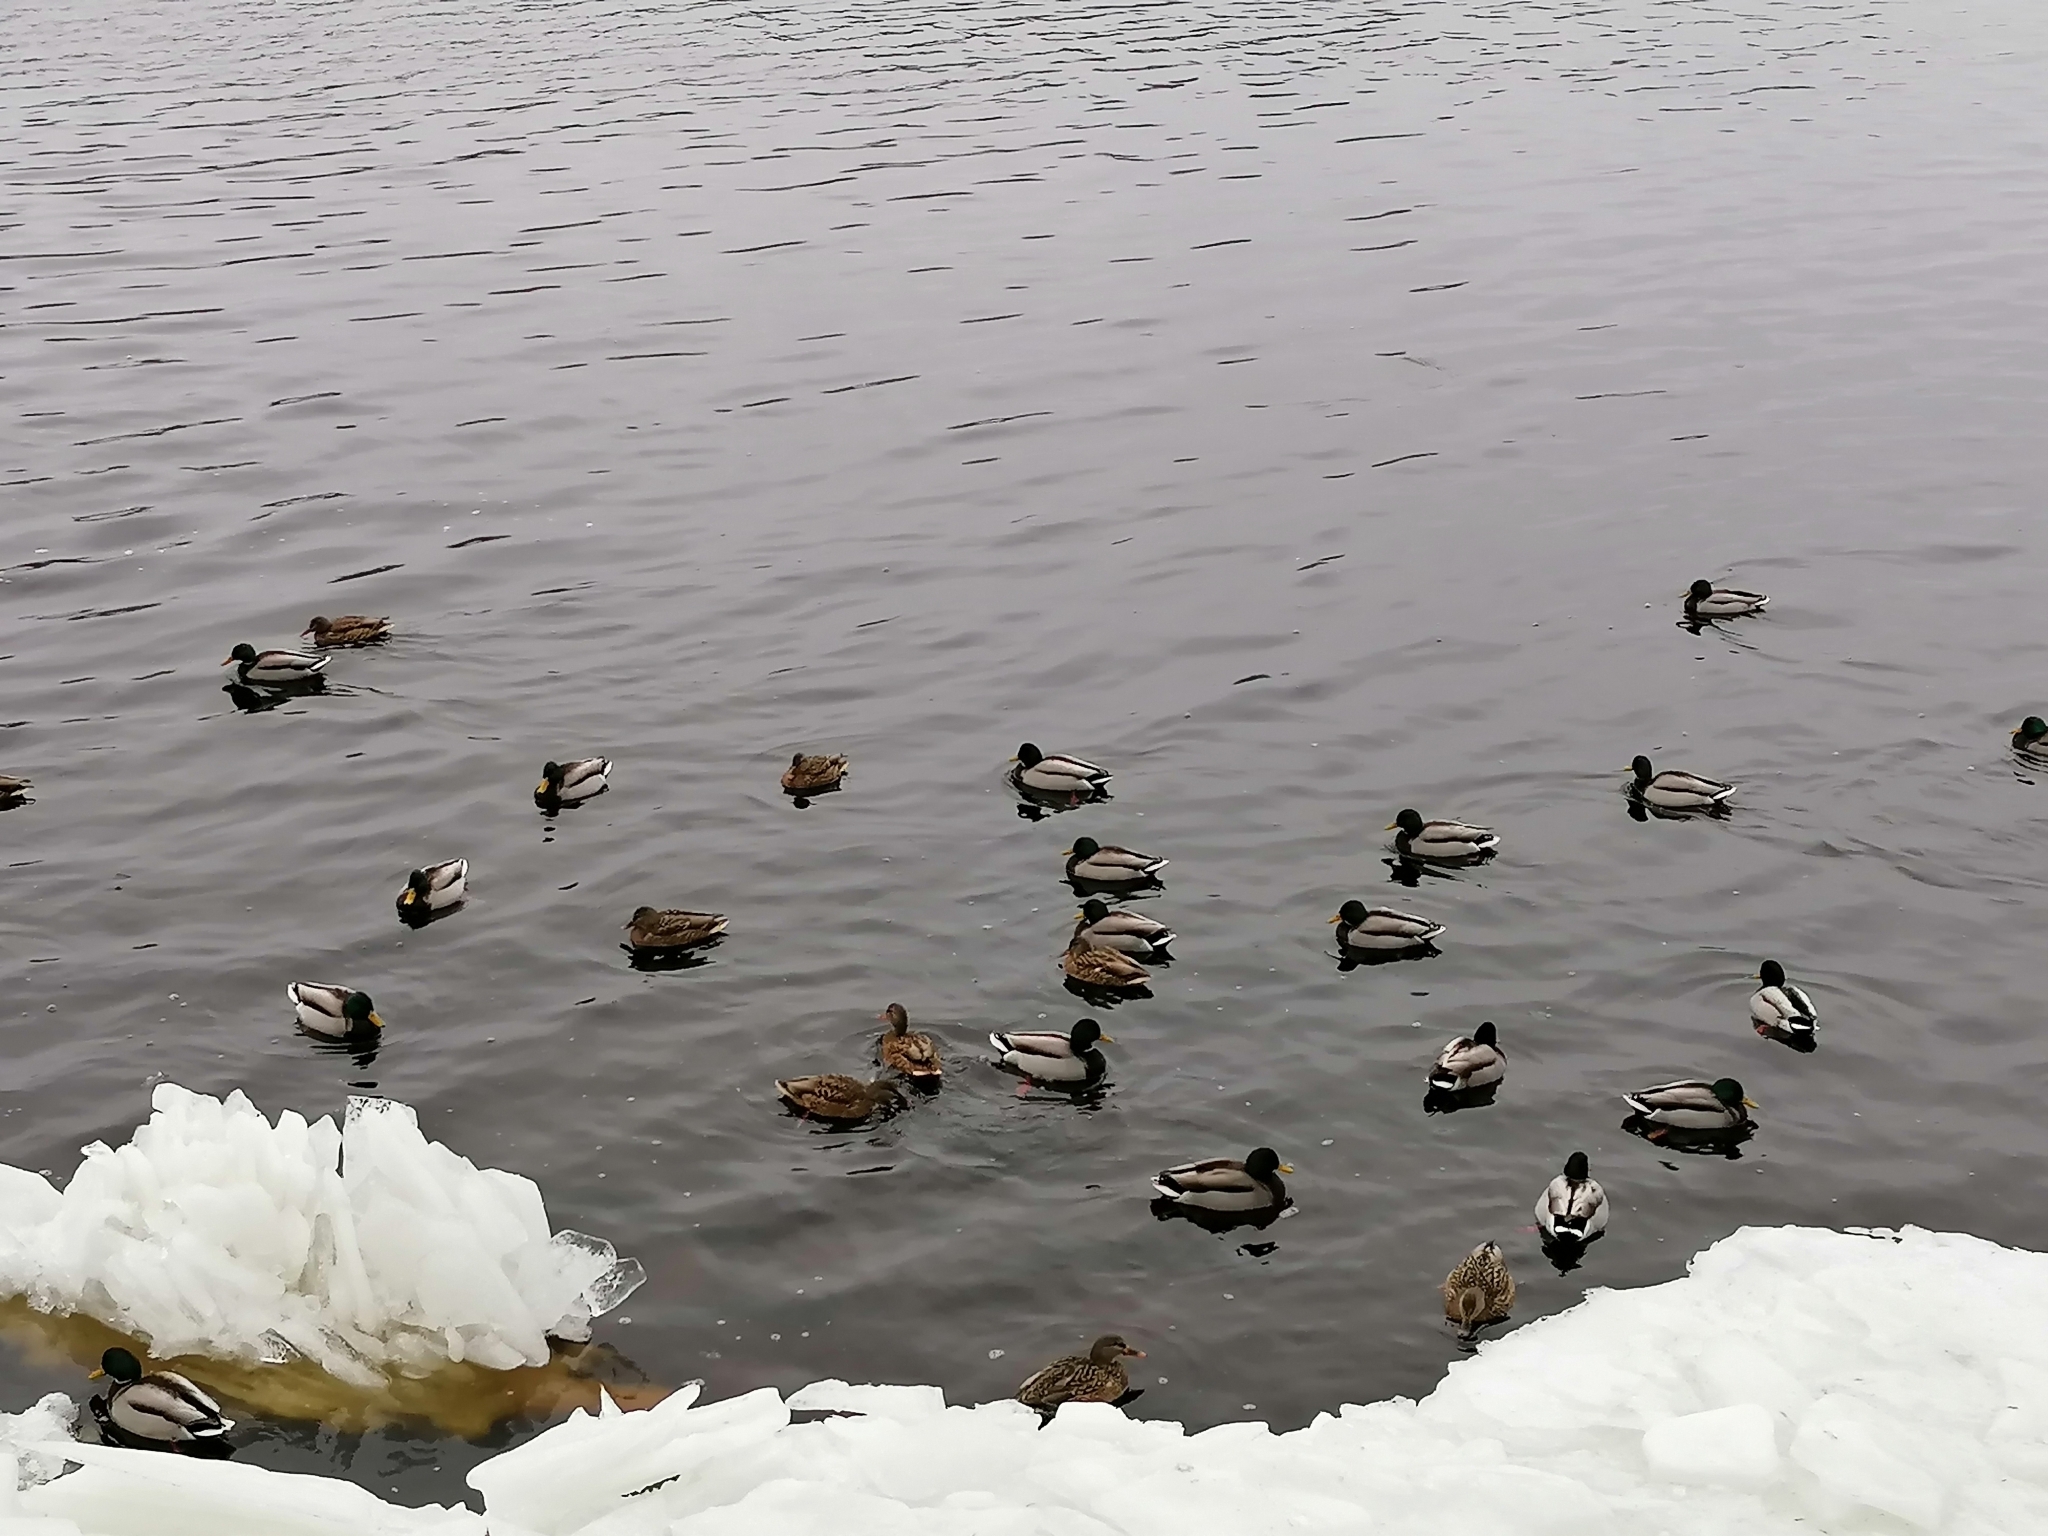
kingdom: Animalia
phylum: Chordata
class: Aves
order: Anseriformes
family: Anatidae
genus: Anas
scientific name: Anas platyrhynchos
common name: Mallard
